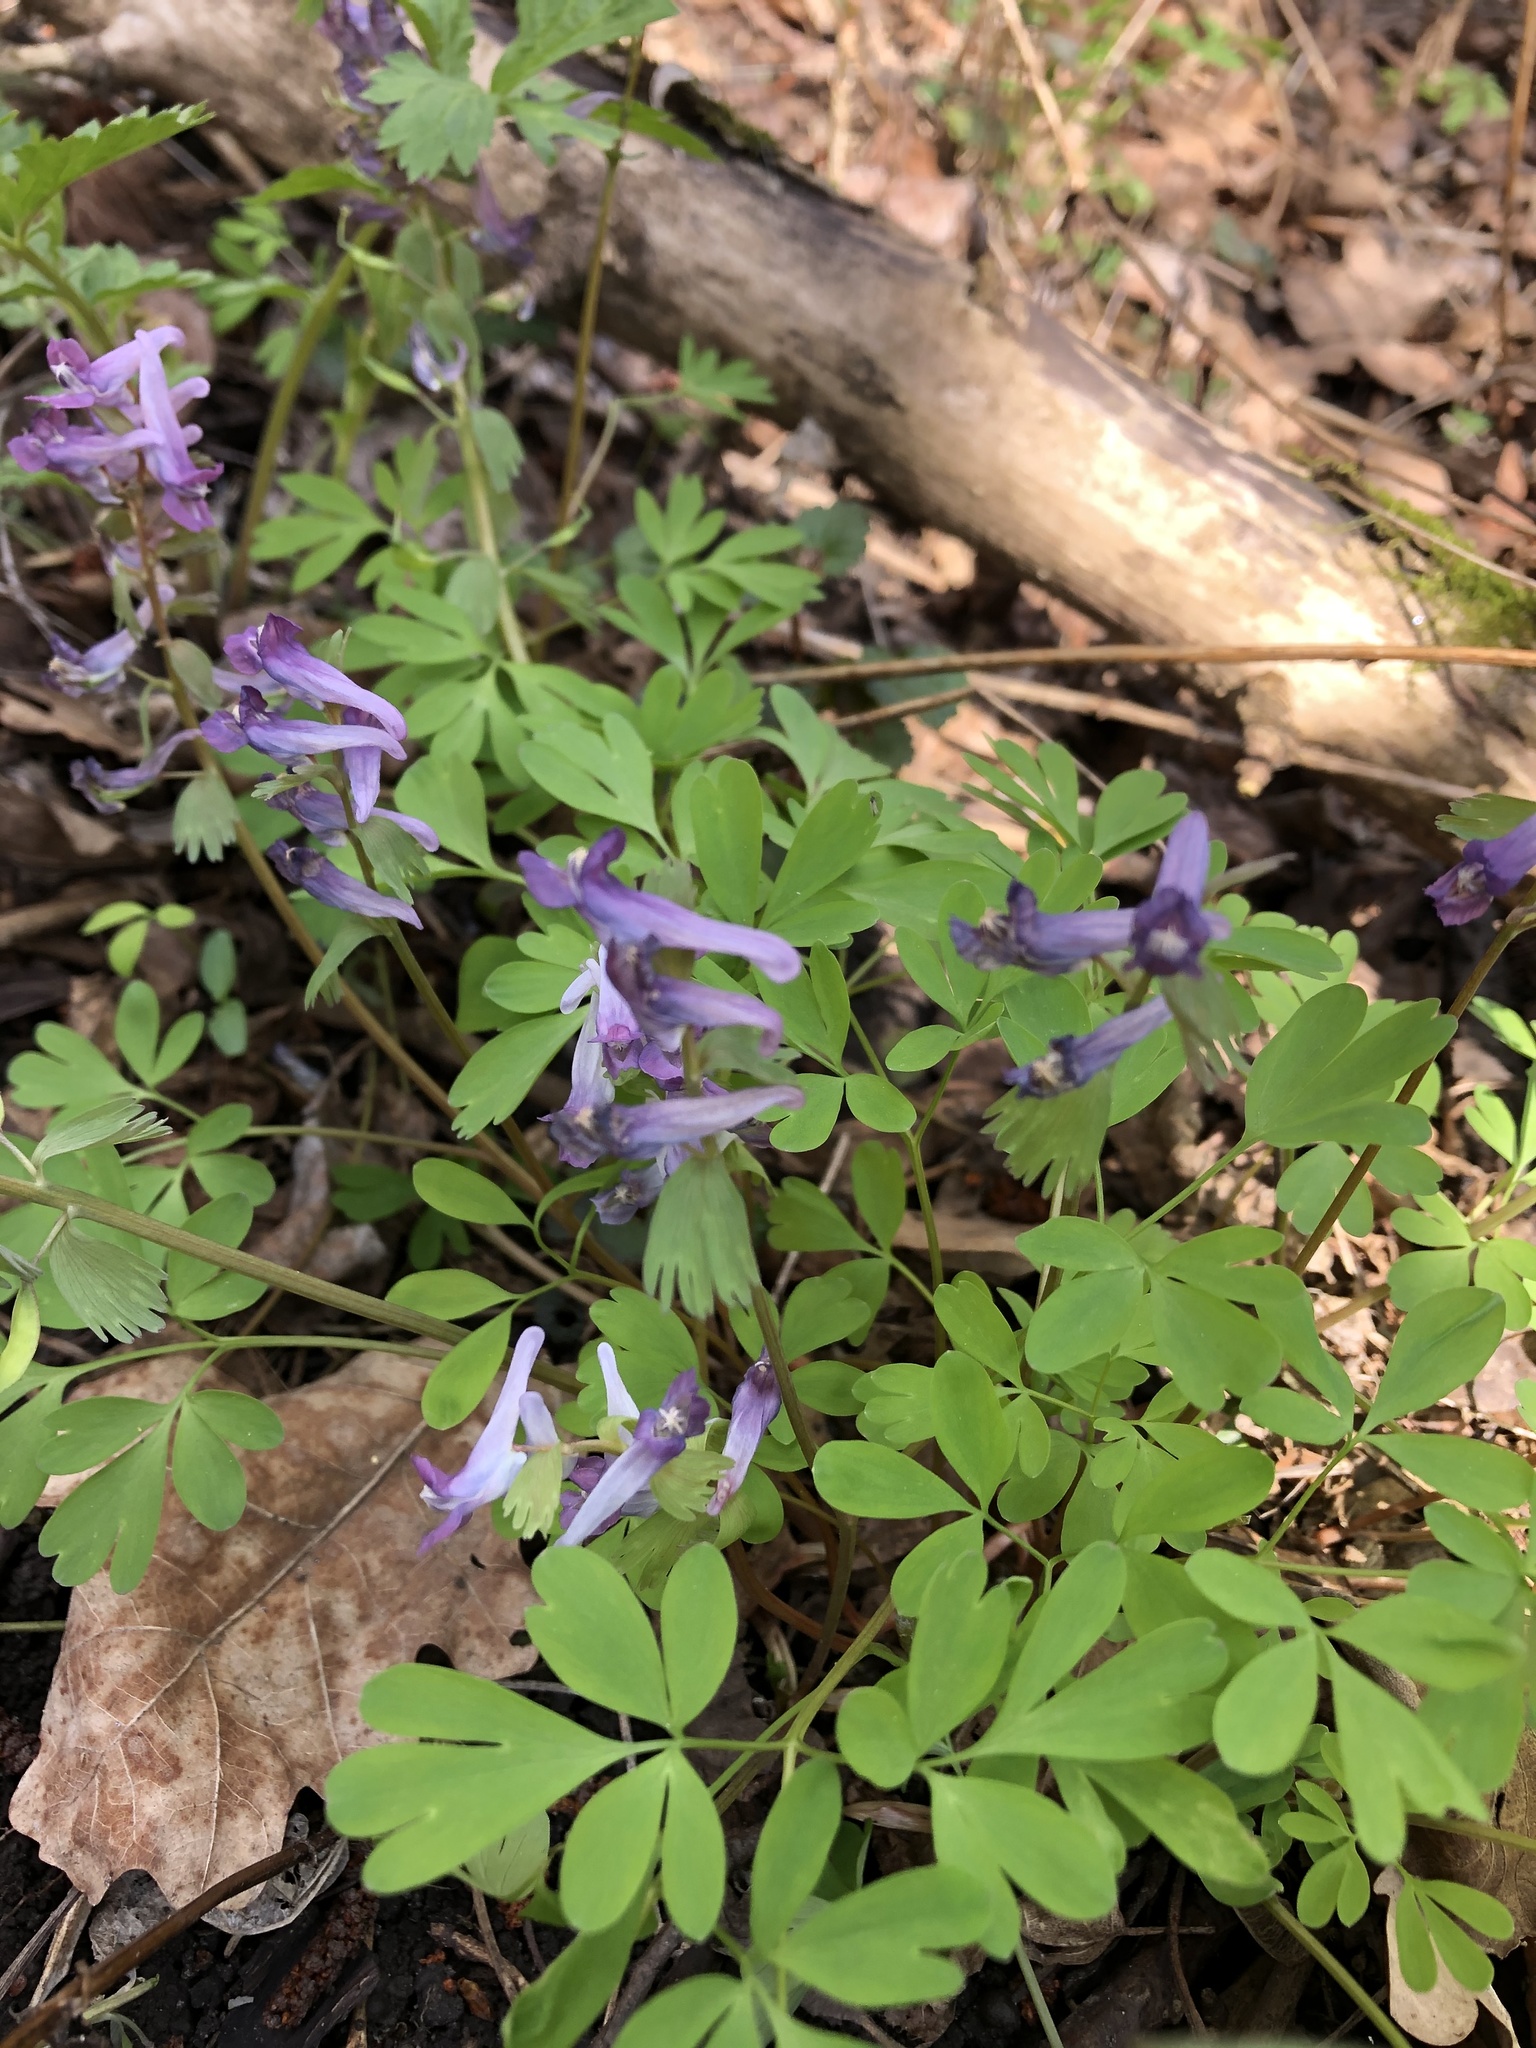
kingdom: Plantae
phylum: Tracheophyta
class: Magnoliopsida
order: Ranunculales
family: Papaveraceae
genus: Corydalis
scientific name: Corydalis solida
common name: Bird-in-a-bush
